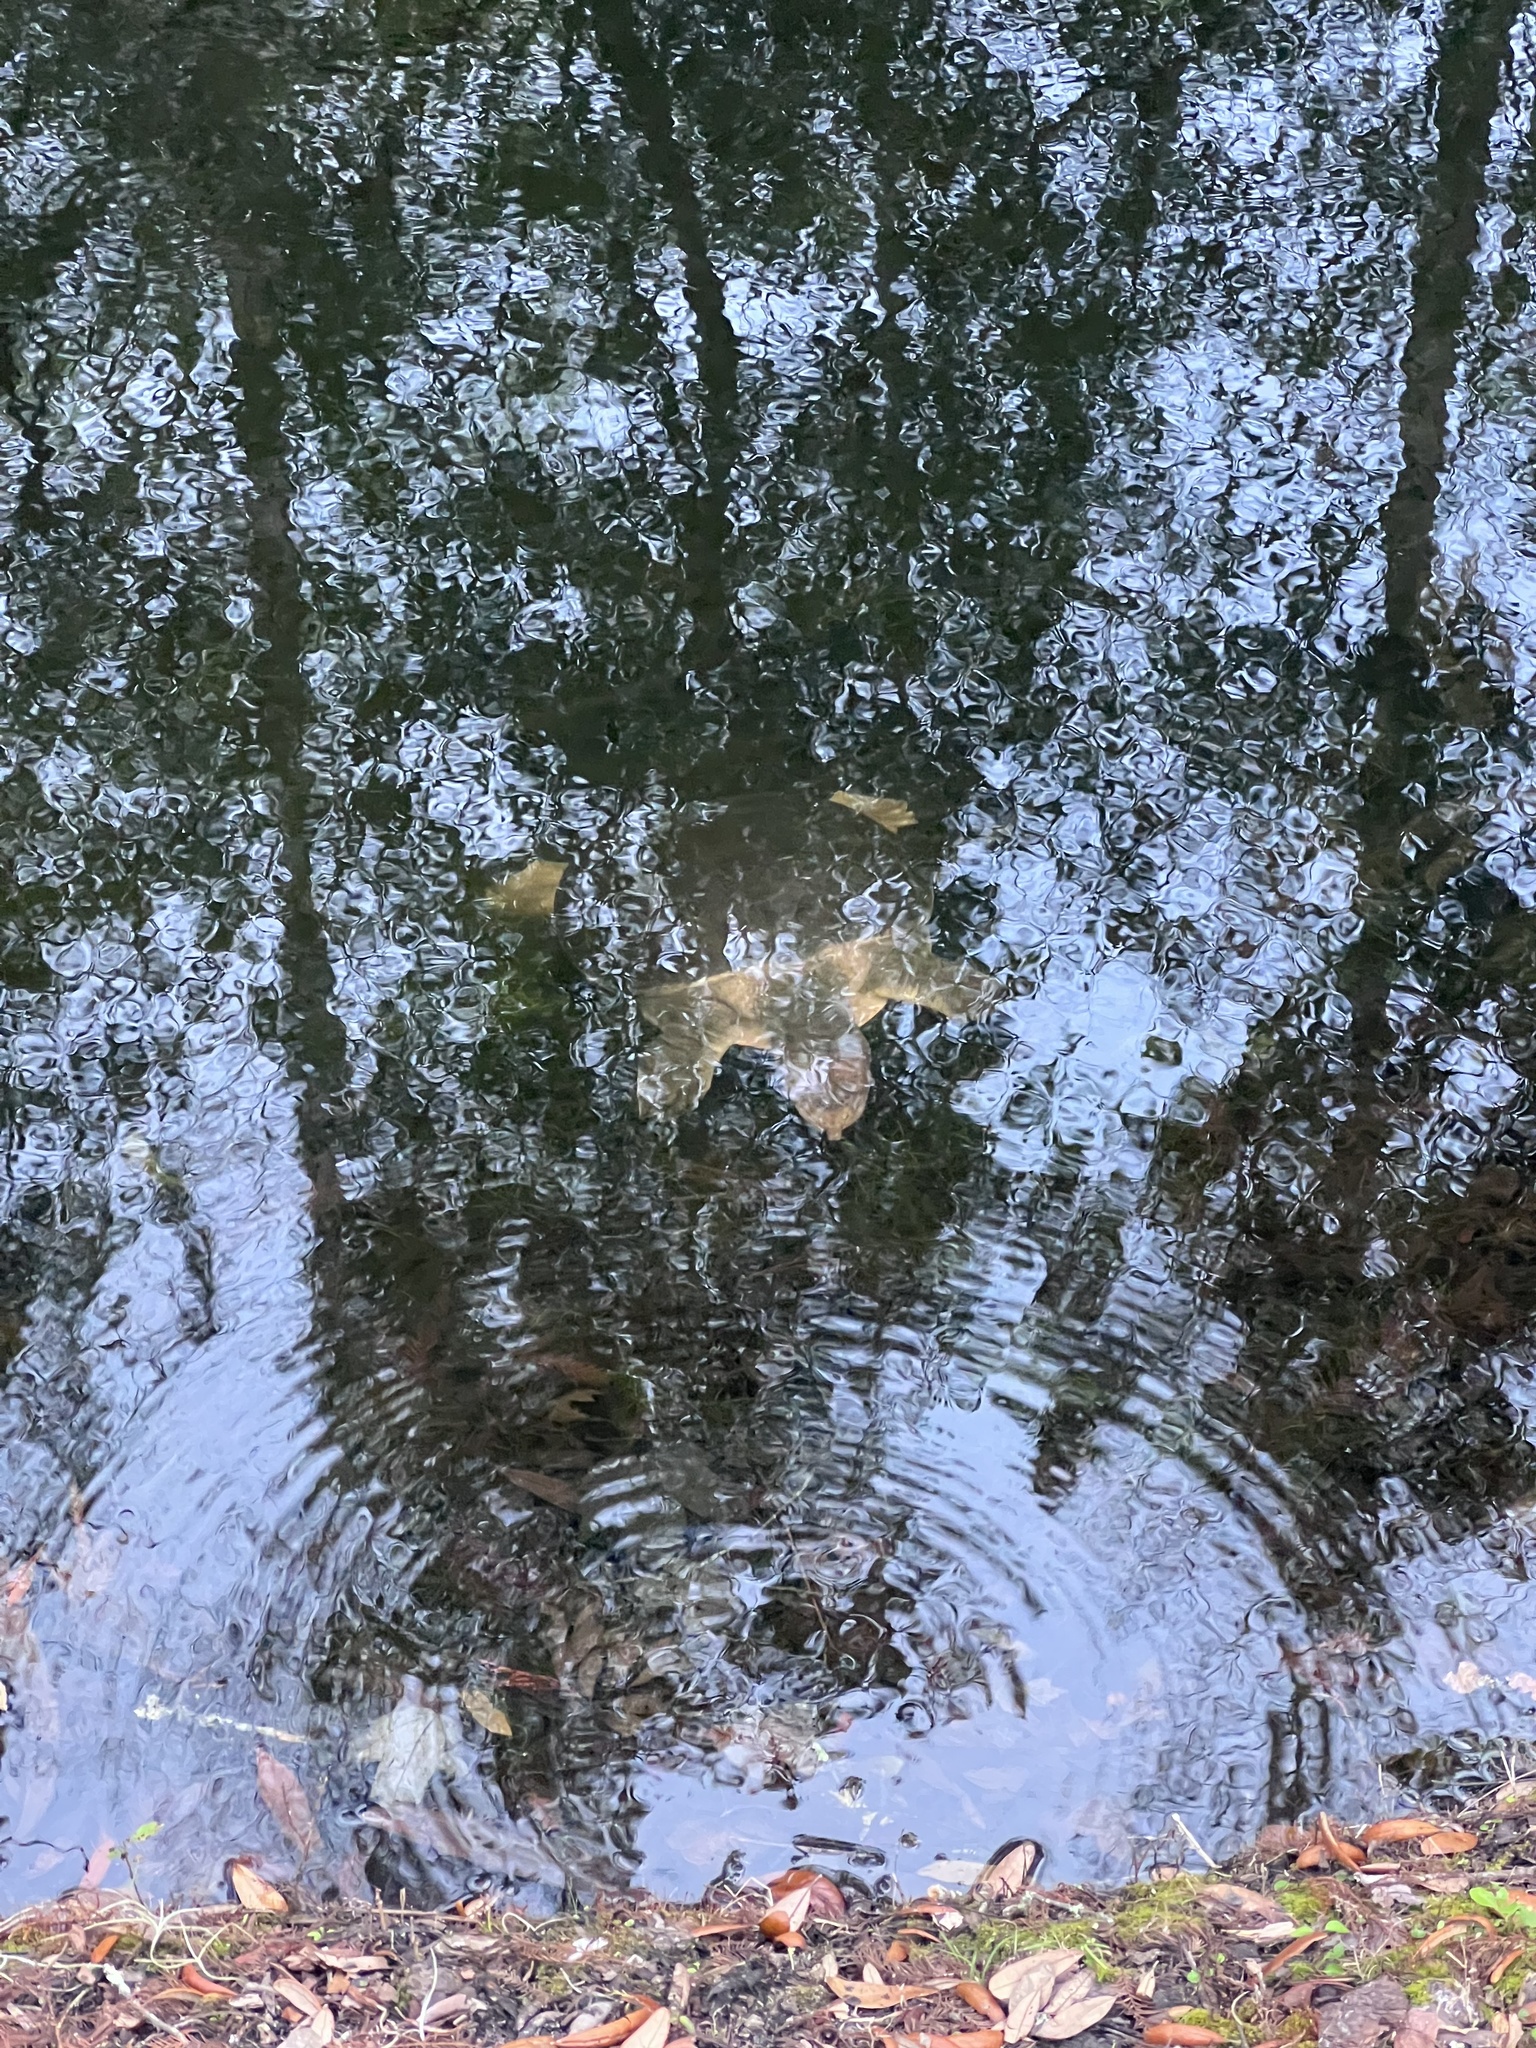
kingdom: Animalia
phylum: Chordata
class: Testudines
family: Trionychidae
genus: Apalone
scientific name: Apalone ferox
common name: Florida softshell turtle
